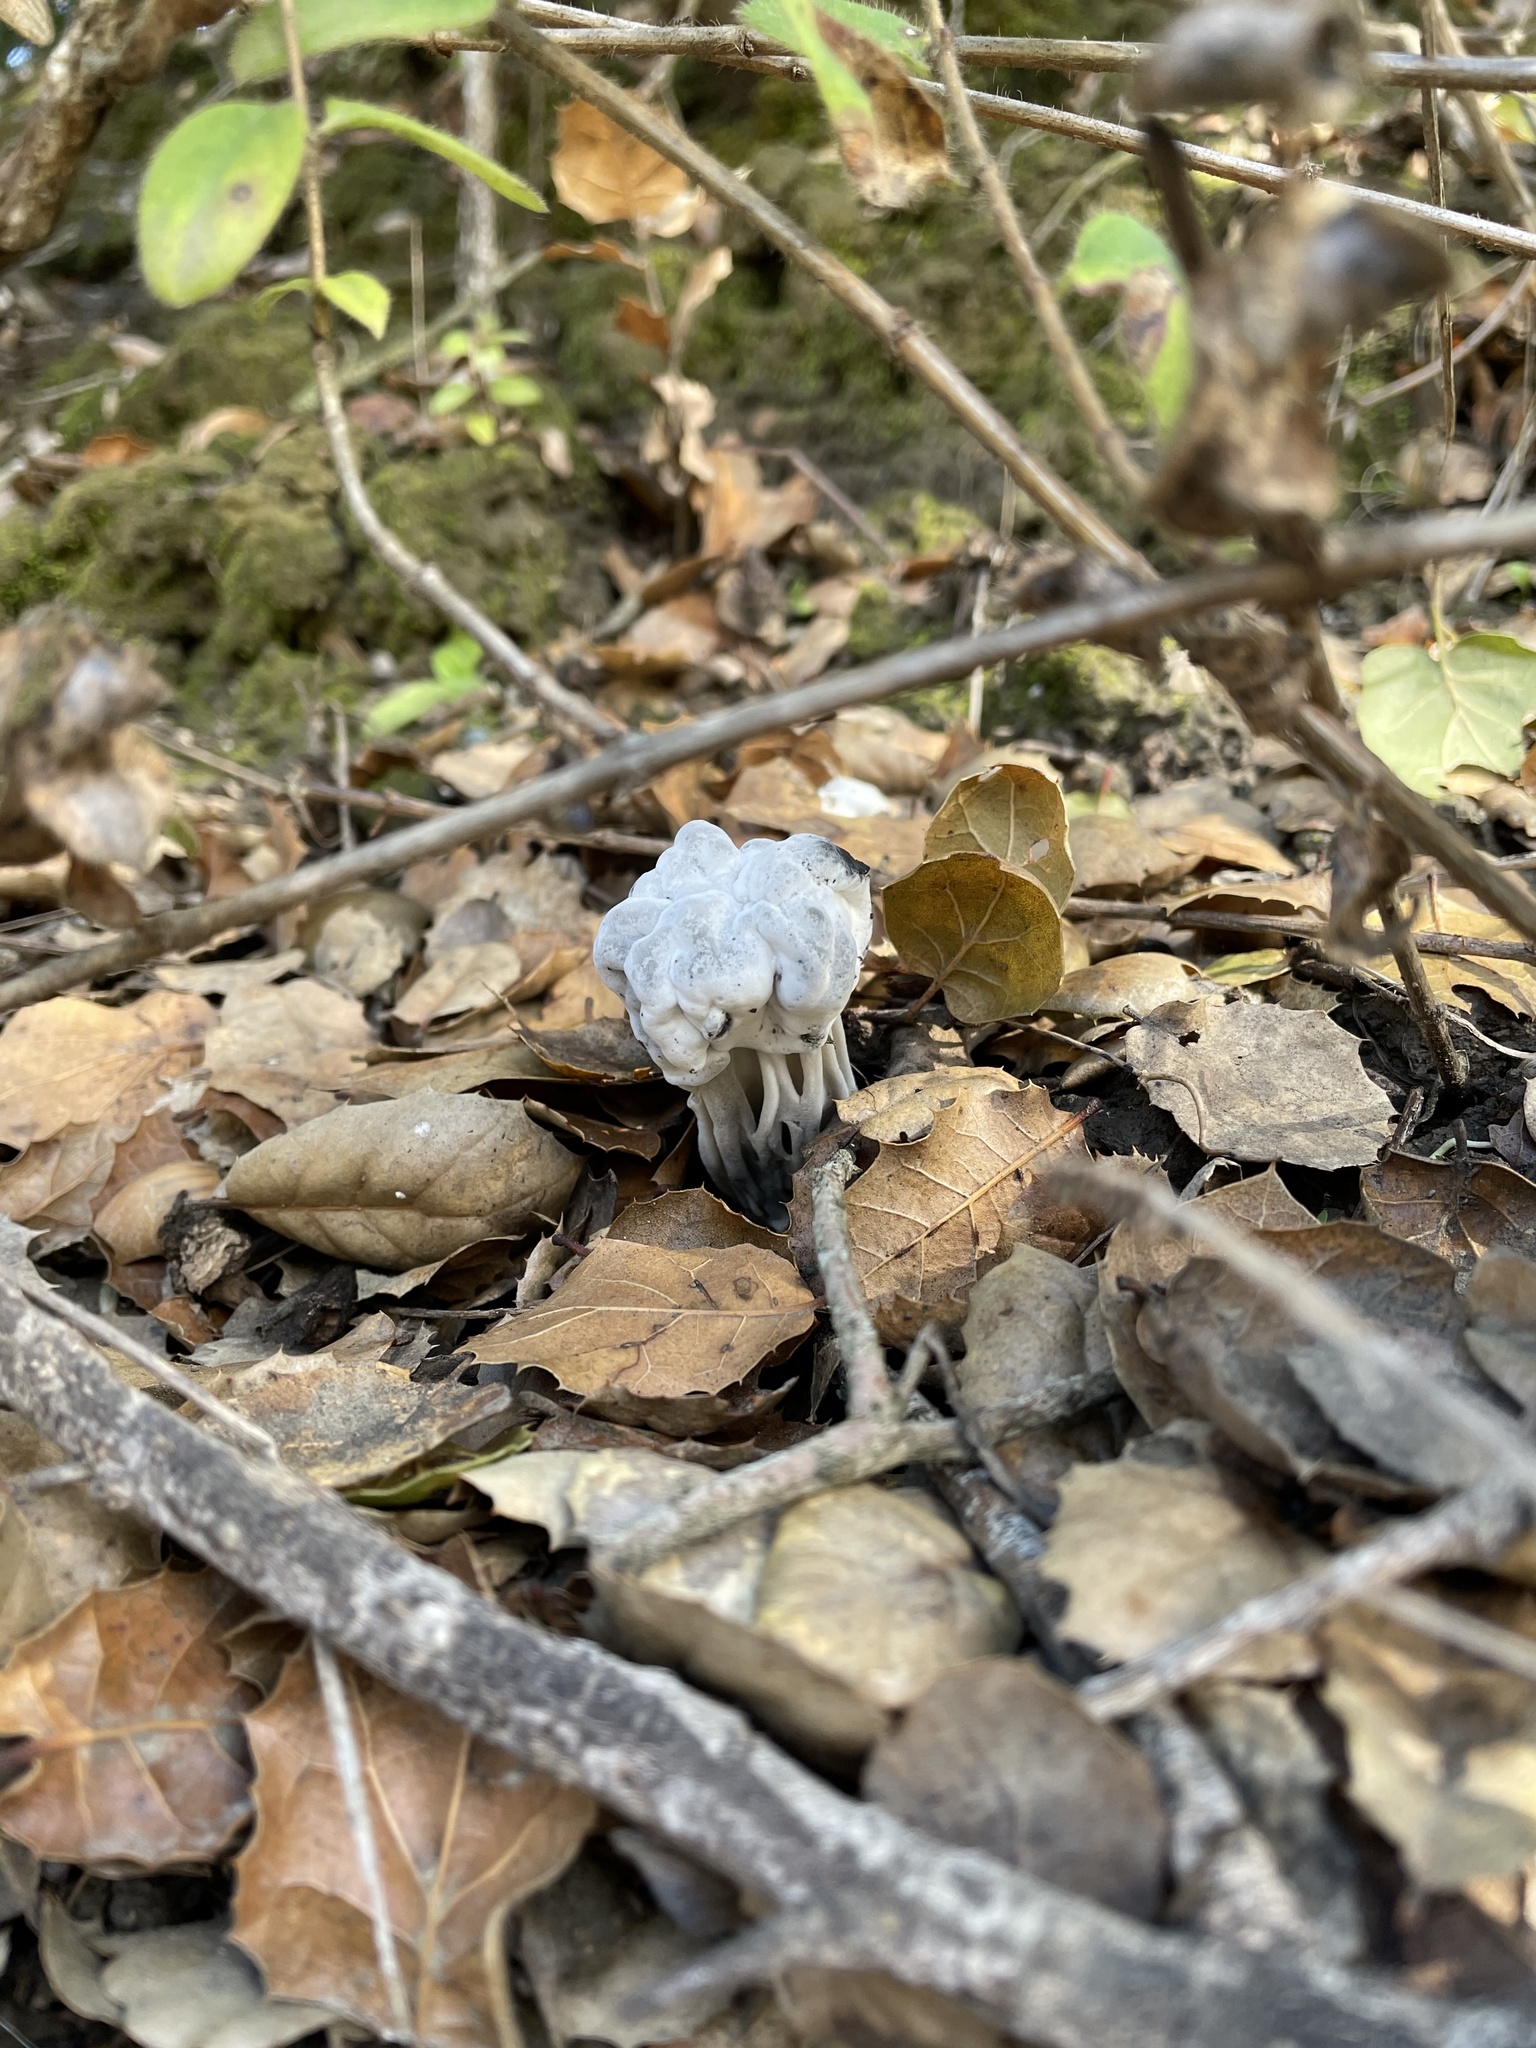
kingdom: Fungi
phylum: Ascomycota
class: Pezizomycetes
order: Pezizales
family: Helvellaceae
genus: Helvella
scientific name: Helvella dryophila
